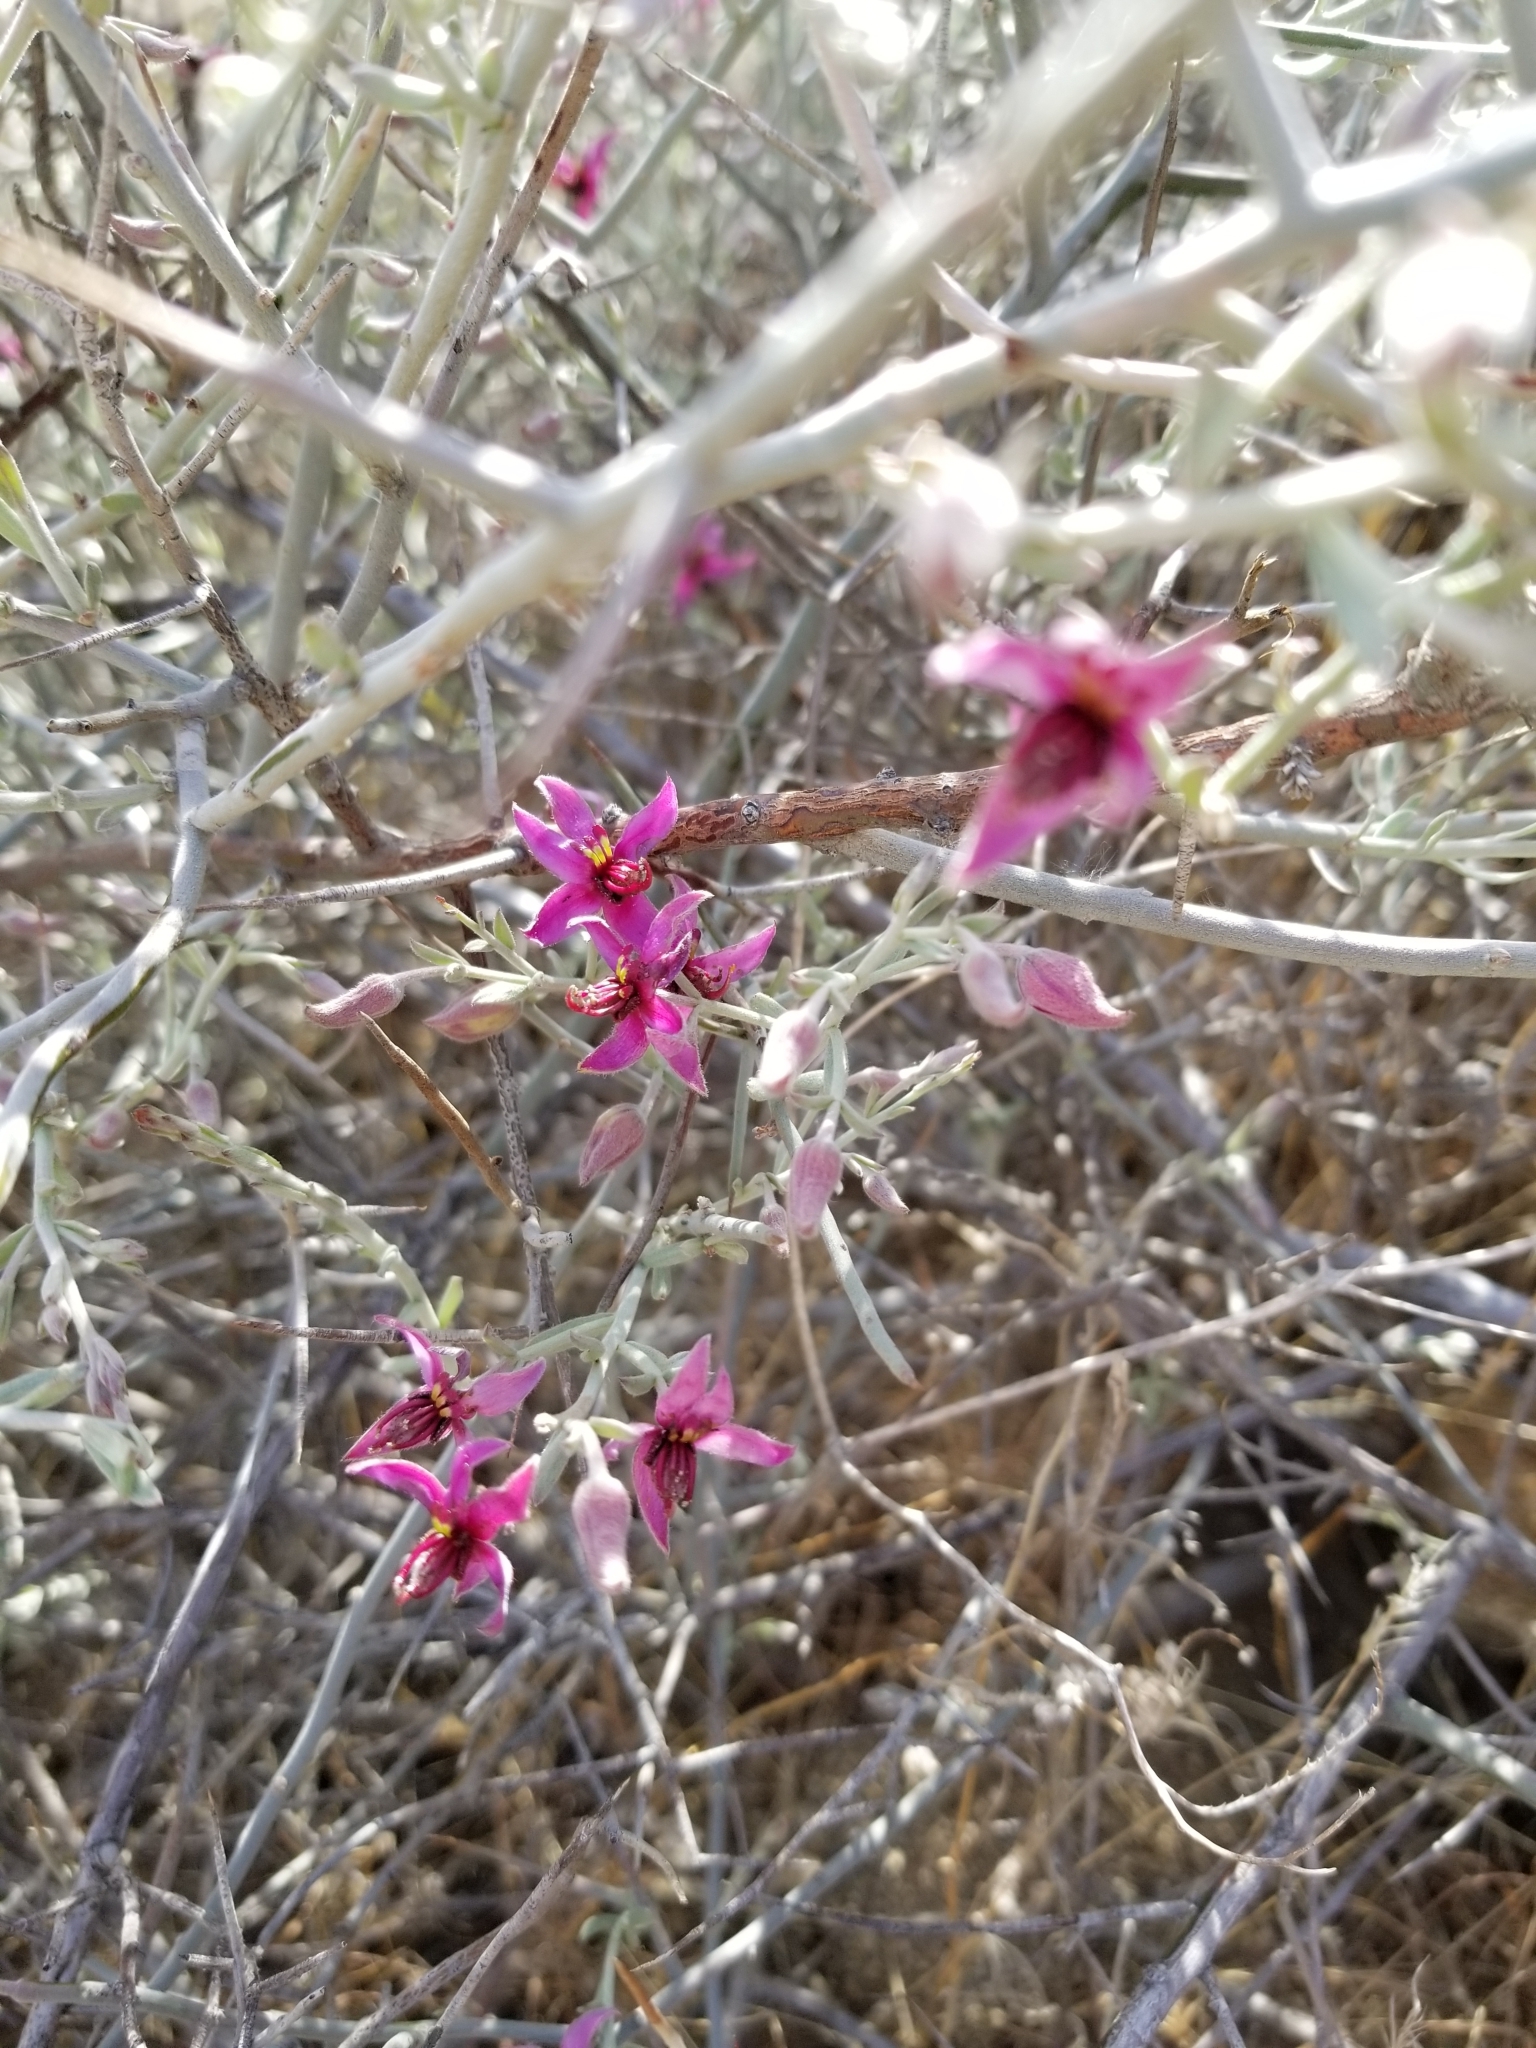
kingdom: Plantae
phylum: Tracheophyta
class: Magnoliopsida
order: Zygophyllales
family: Krameriaceae
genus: Krameria
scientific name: Krameria bicolor
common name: White ratany
